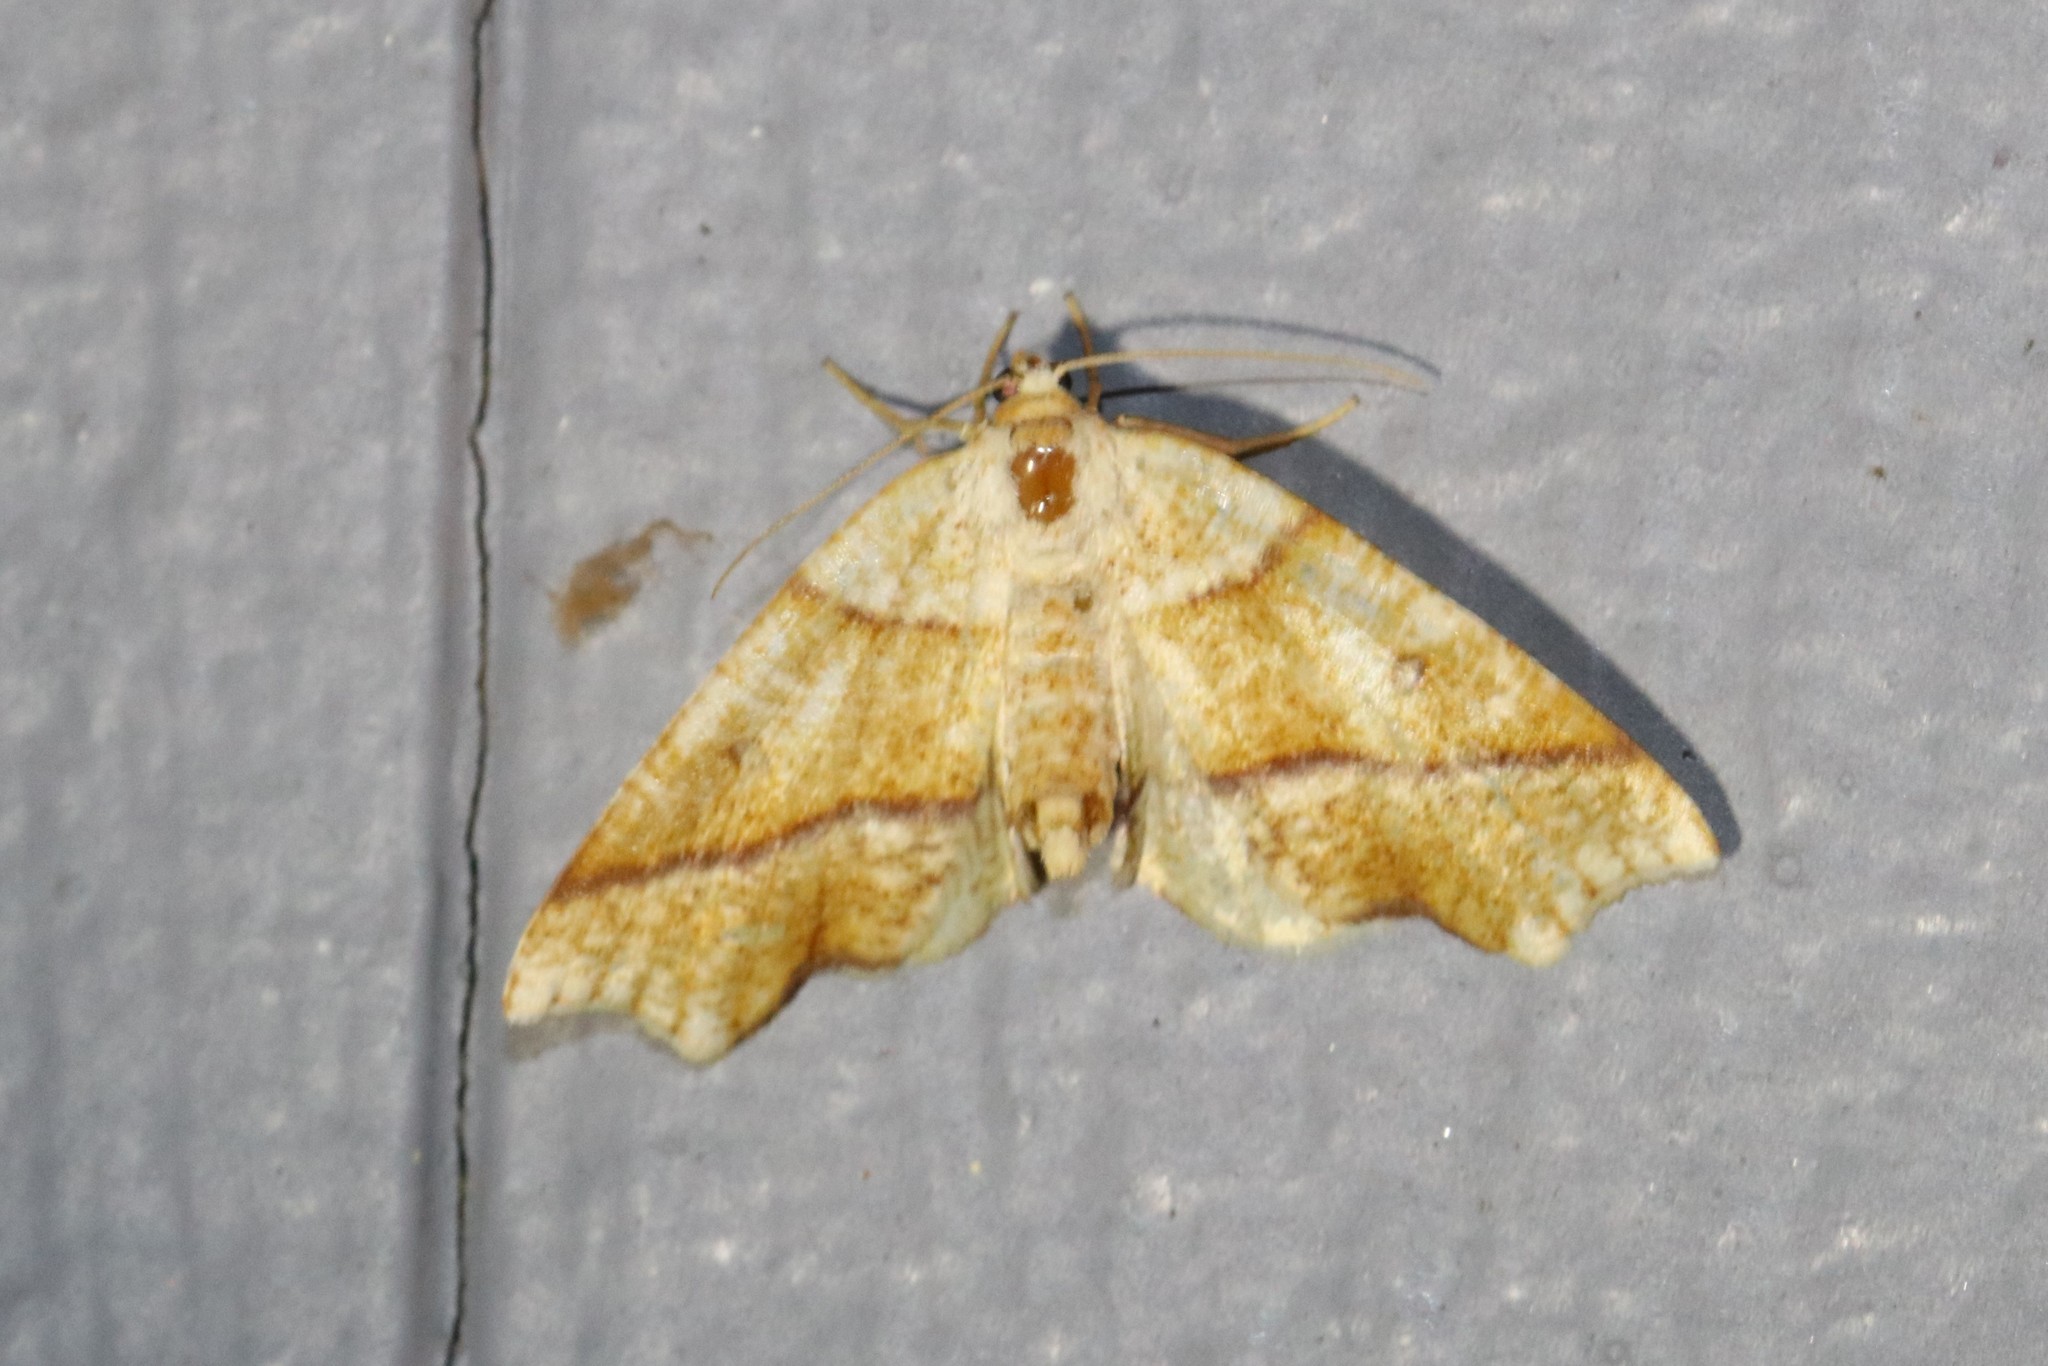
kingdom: Animalia
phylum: Arthropoda
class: Insecta
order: Lepidoptera
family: Geometridae
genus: Plagodis
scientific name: Plagodis alcoolaria
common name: Hollow-spotted plagodis
